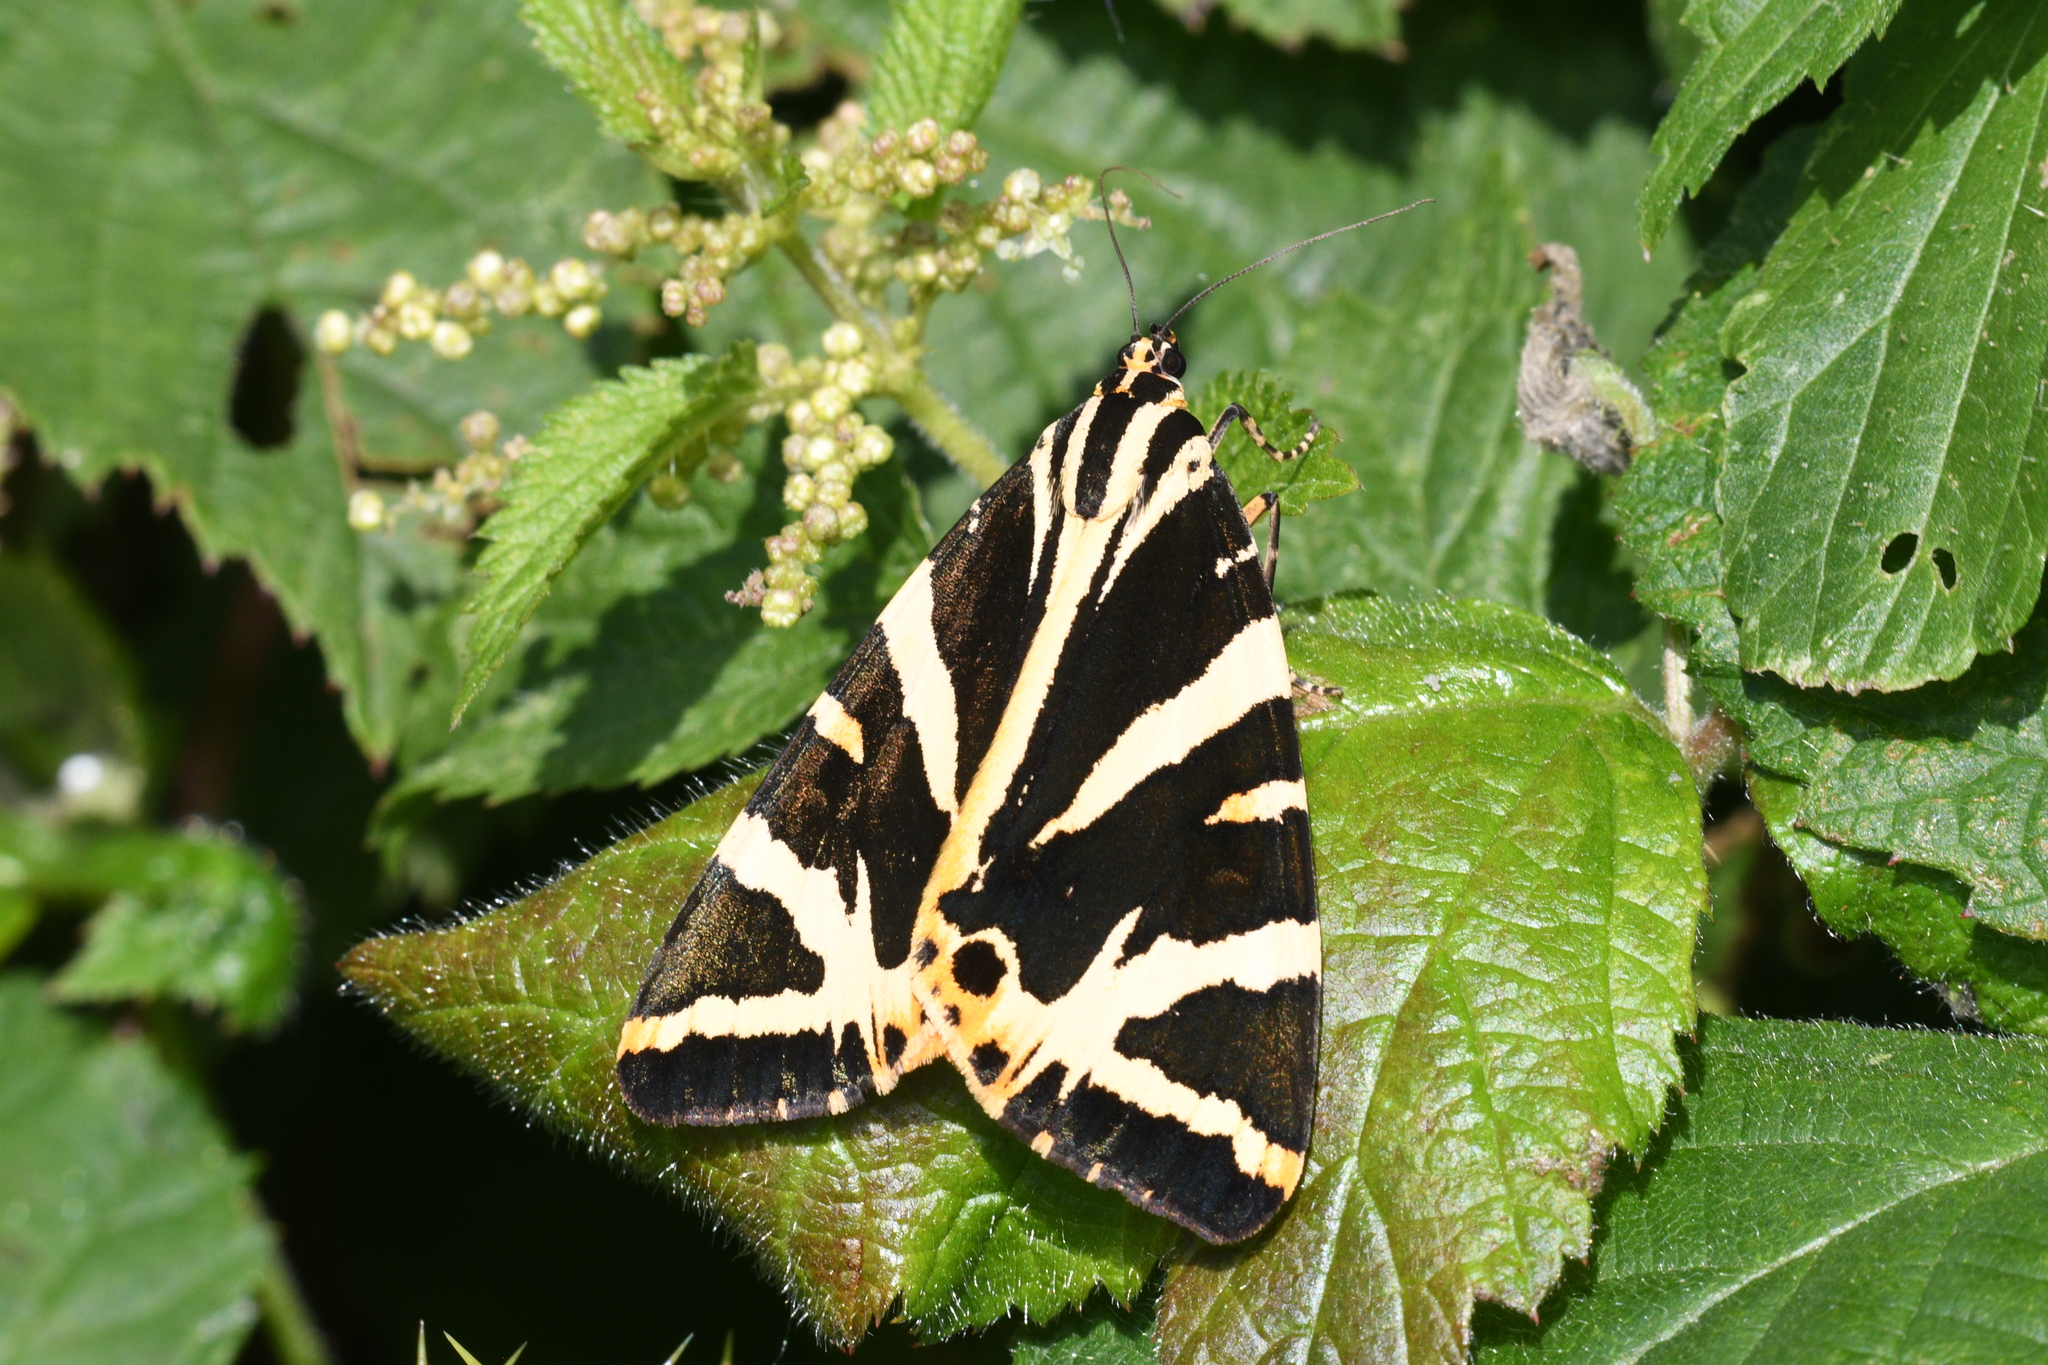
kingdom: Animalia
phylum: Arthropoda
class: Insecta
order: Lepidoptera
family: Erebidae
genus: Euplagia
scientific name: Euplagia quadripunctaria
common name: Jersey tiger
